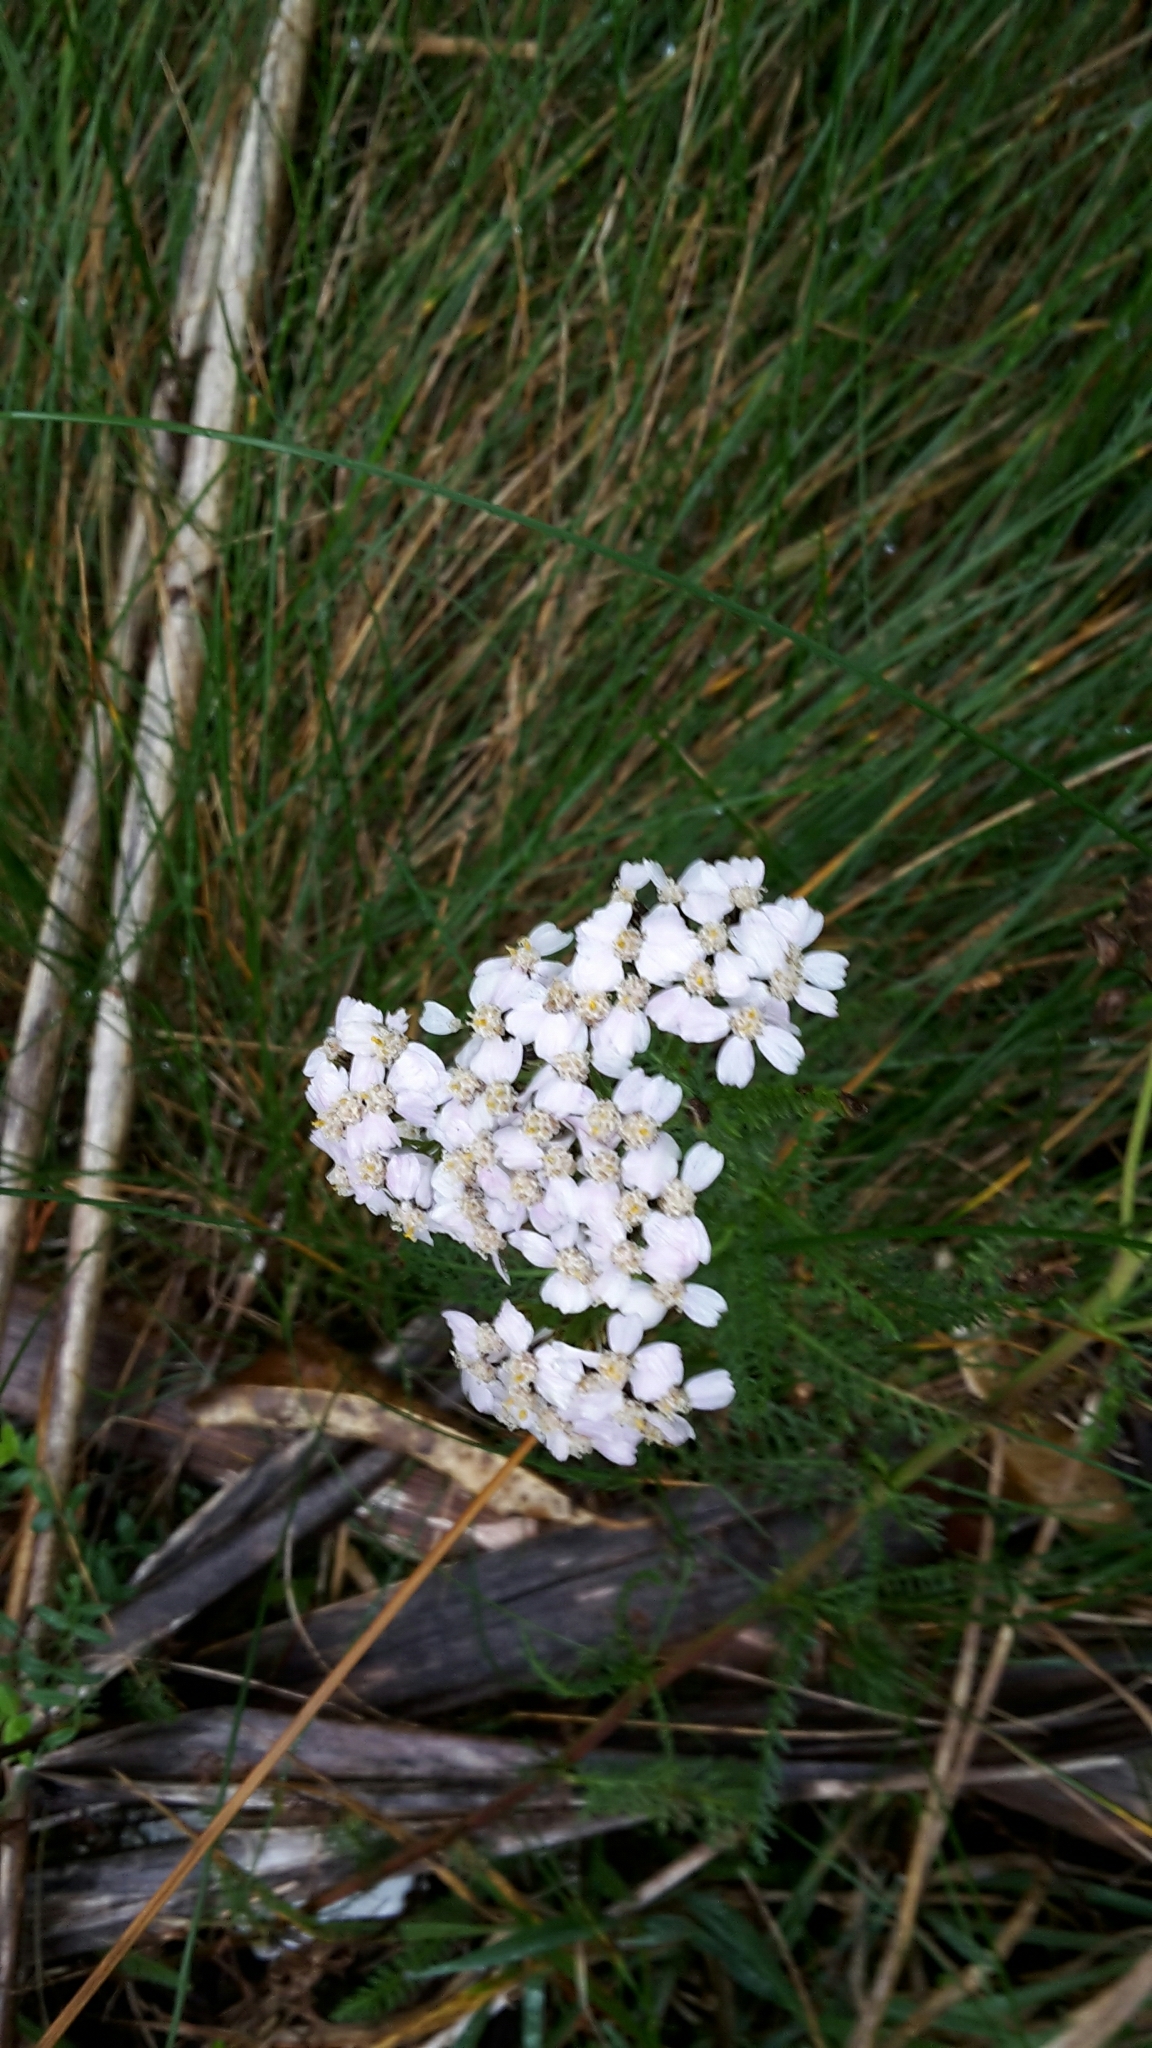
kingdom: Plantae
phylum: Tracheophyta
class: Magnoliopsida
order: Asterales
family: Asteraceae
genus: Achillea
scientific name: Achillea millefolium
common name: Yarrow
